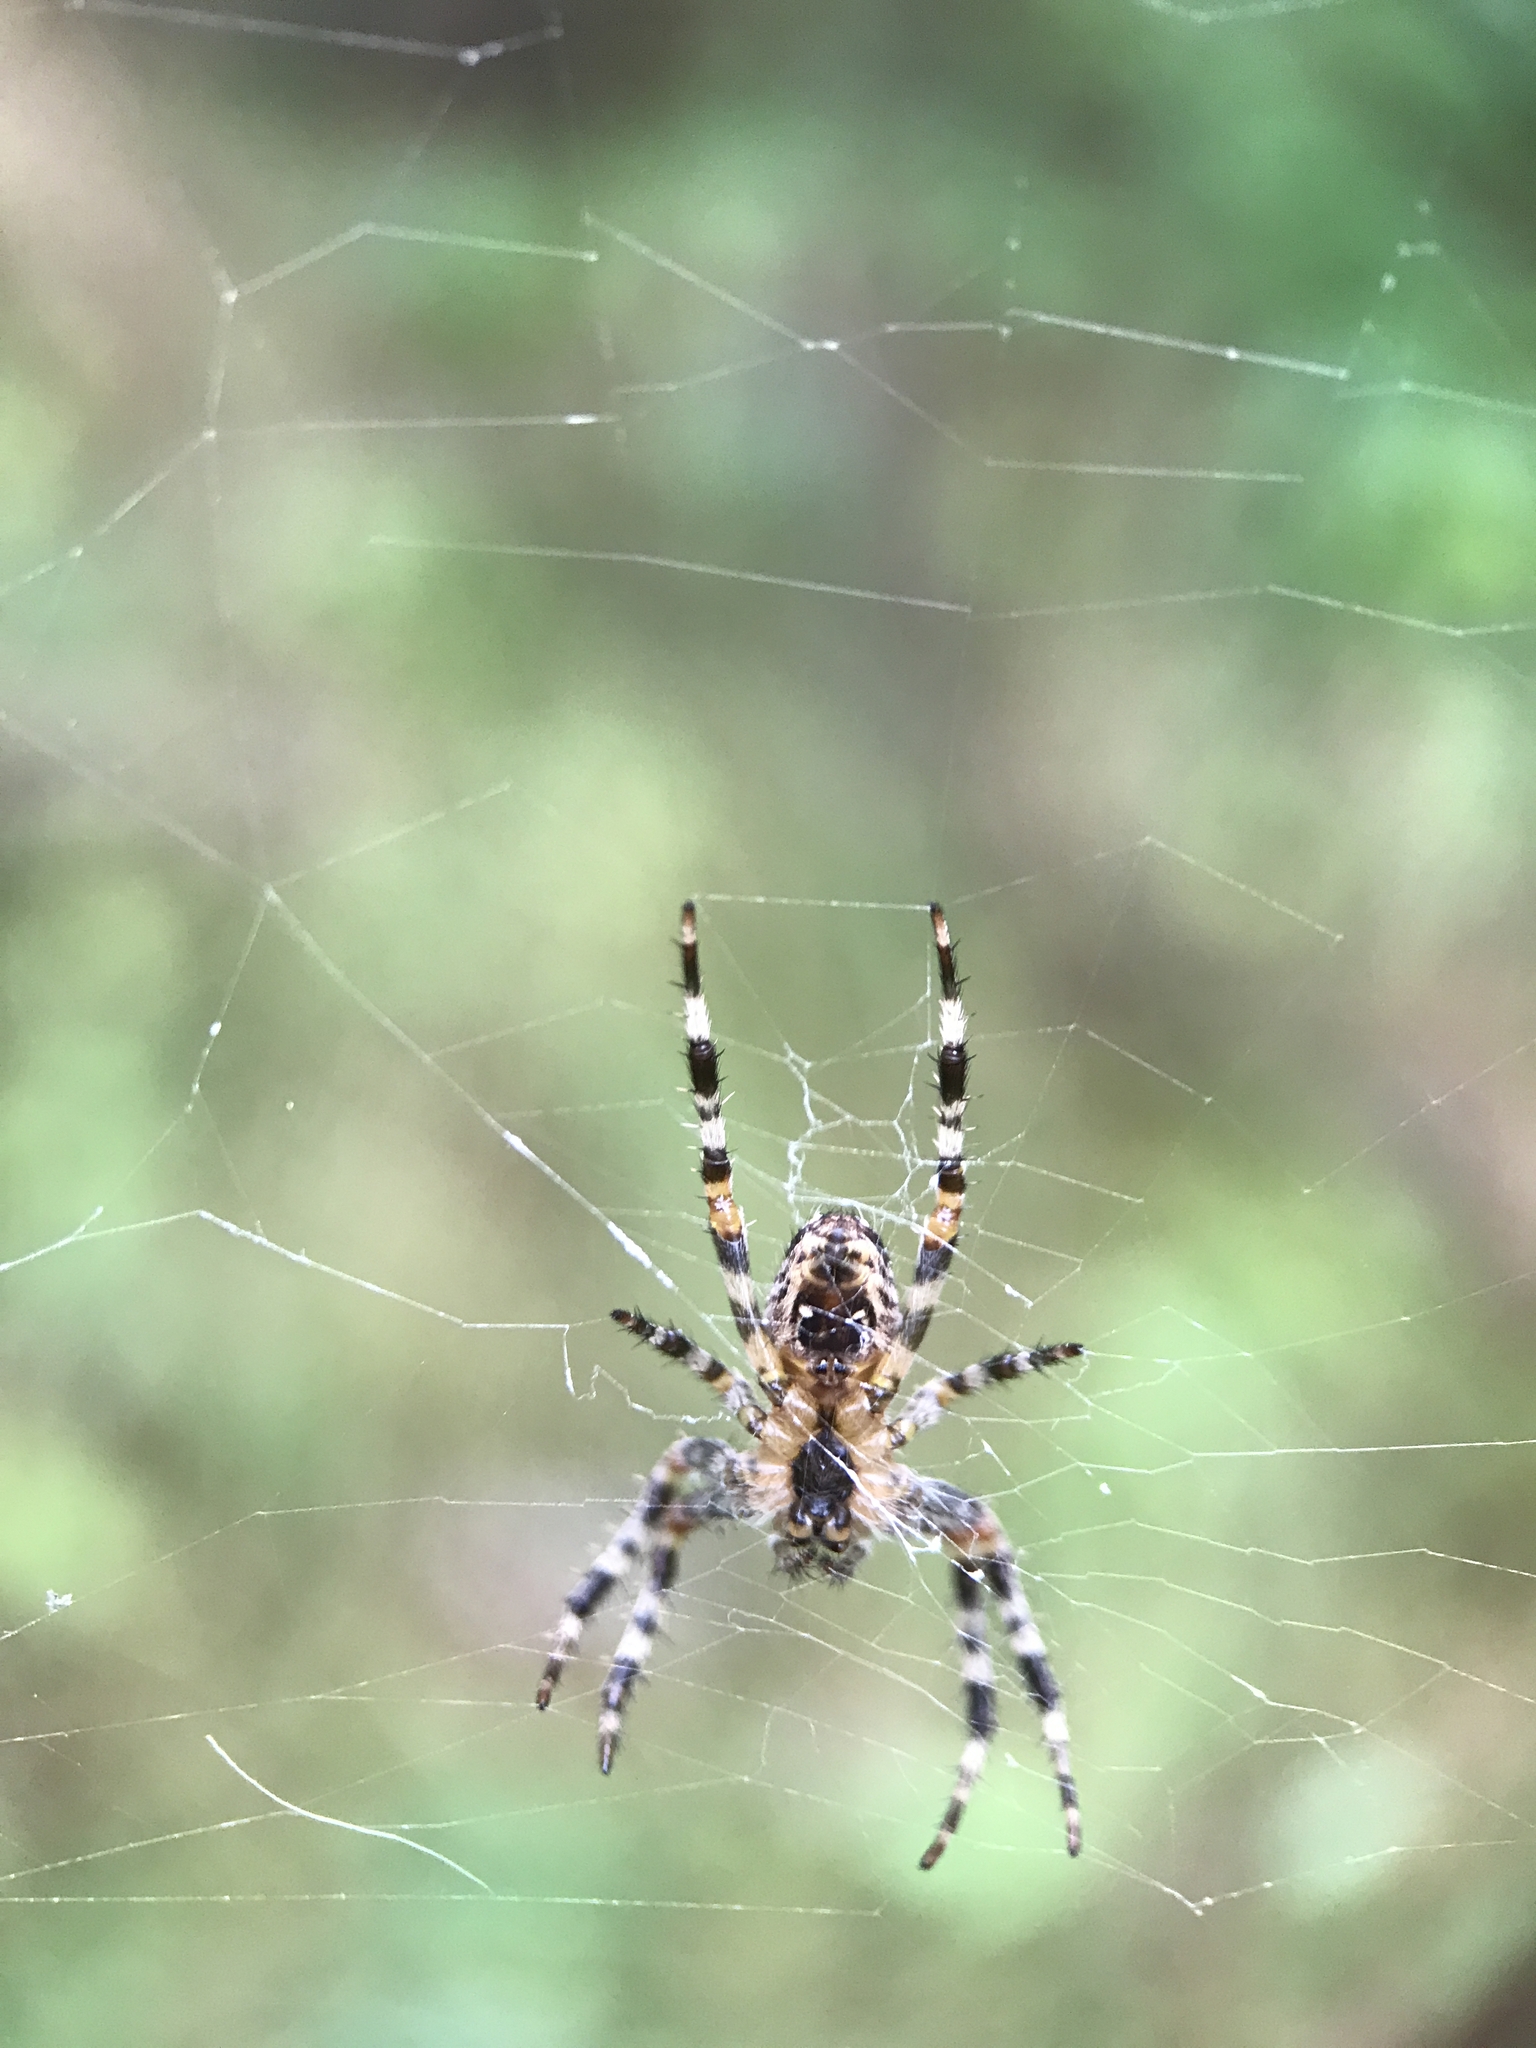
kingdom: Animalia
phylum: Arthropoda
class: Arachnida
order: Araneae
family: Araneidae
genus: Araneus
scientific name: Araneus diadematus
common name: Cross orbweaver
